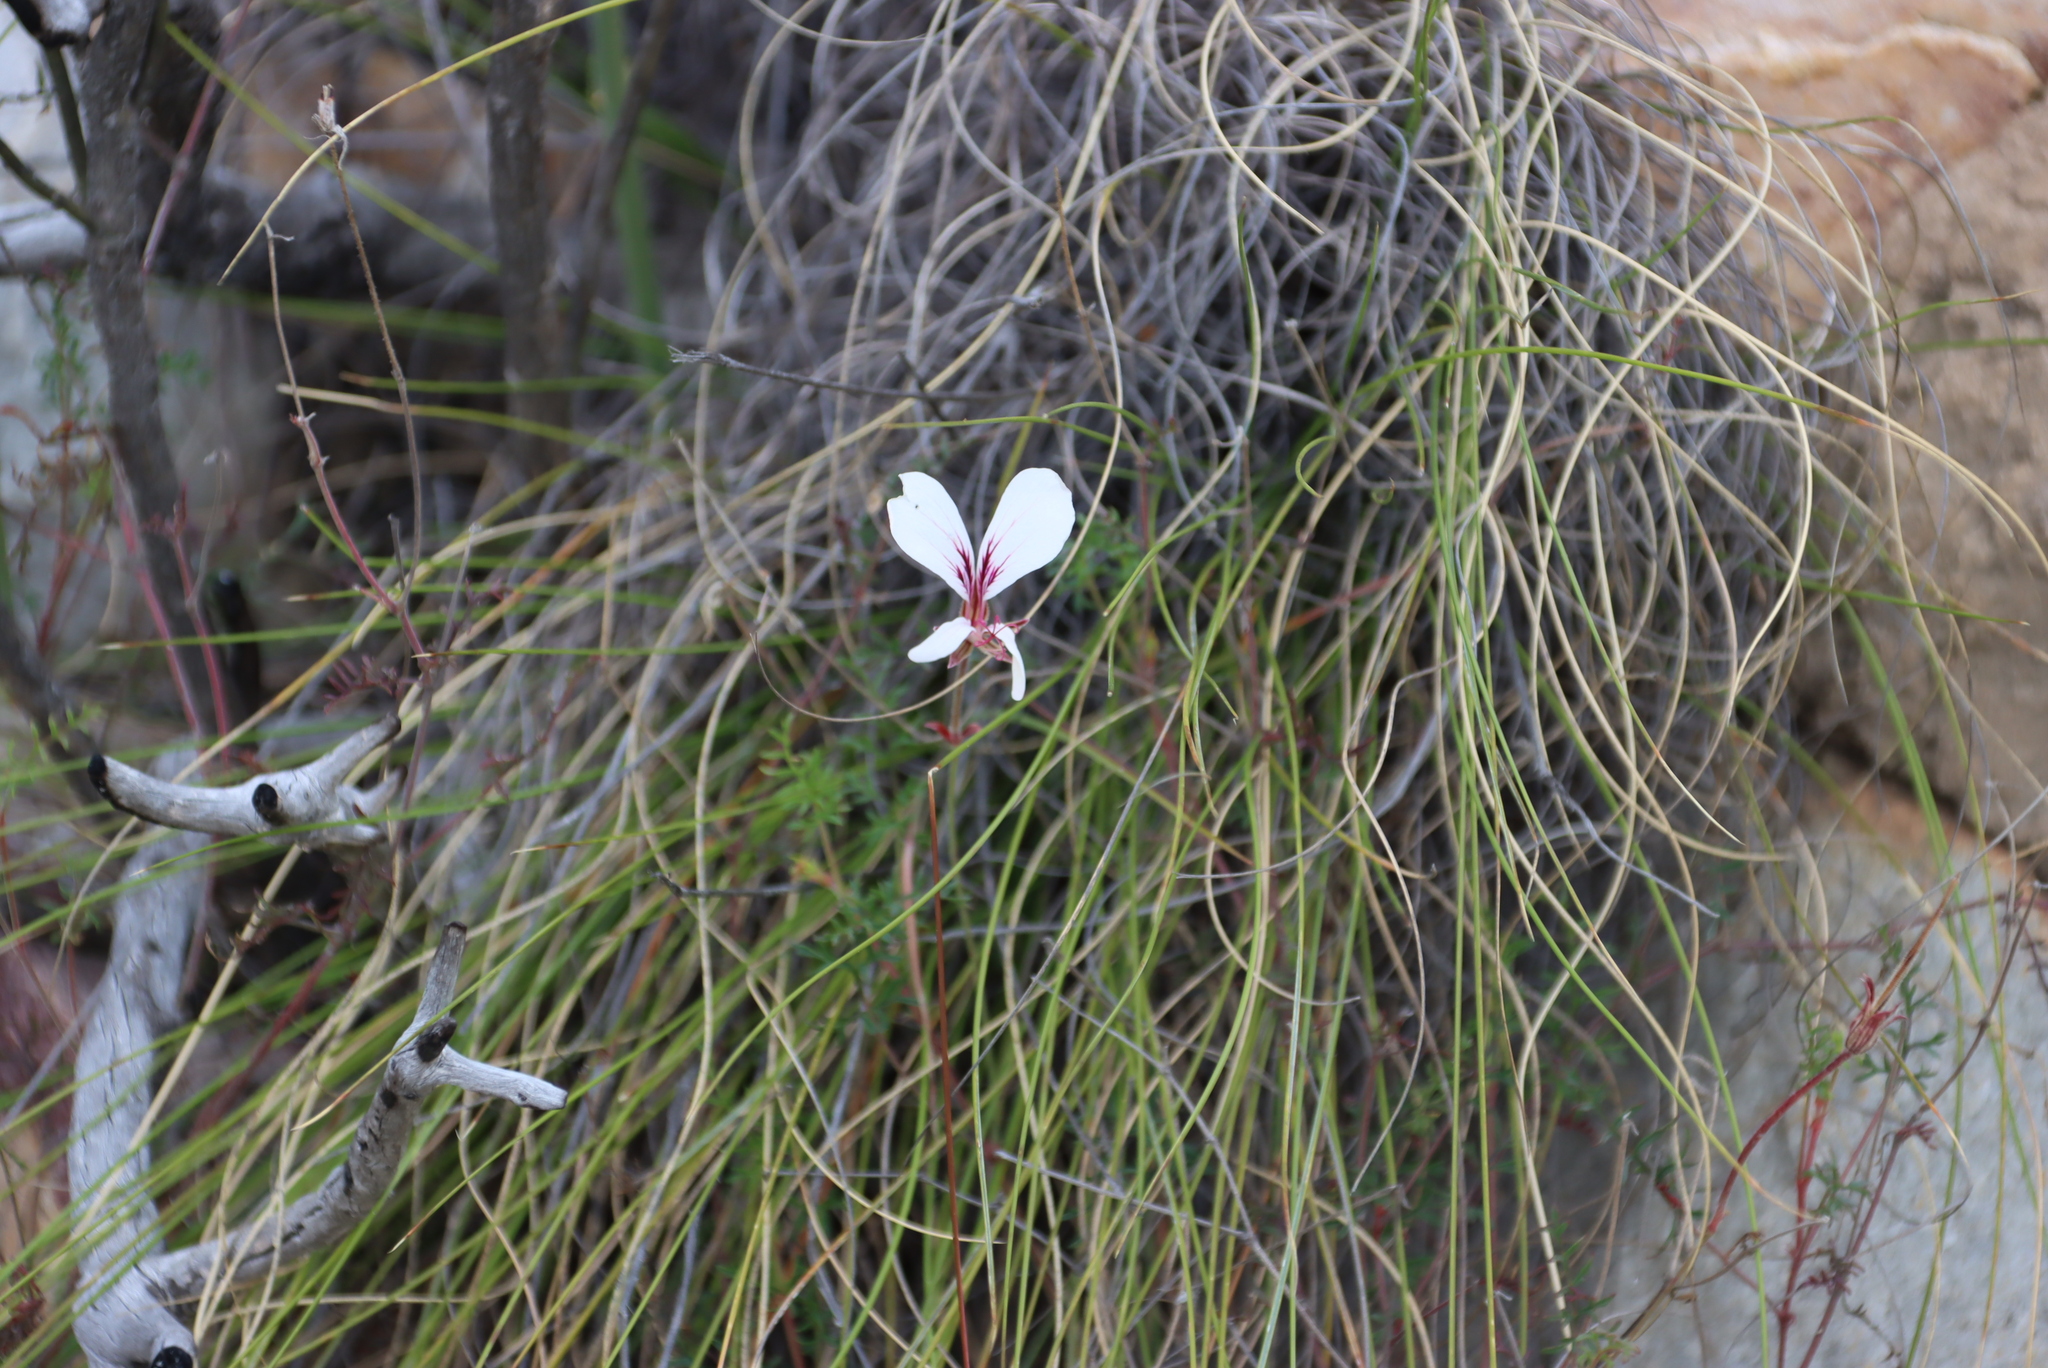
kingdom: Plantae
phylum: Tracheophyta
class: Magnoliopsida
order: Geraniales
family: Geraniaceae
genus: Pelargonium
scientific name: Pelargonium caucalifolium
